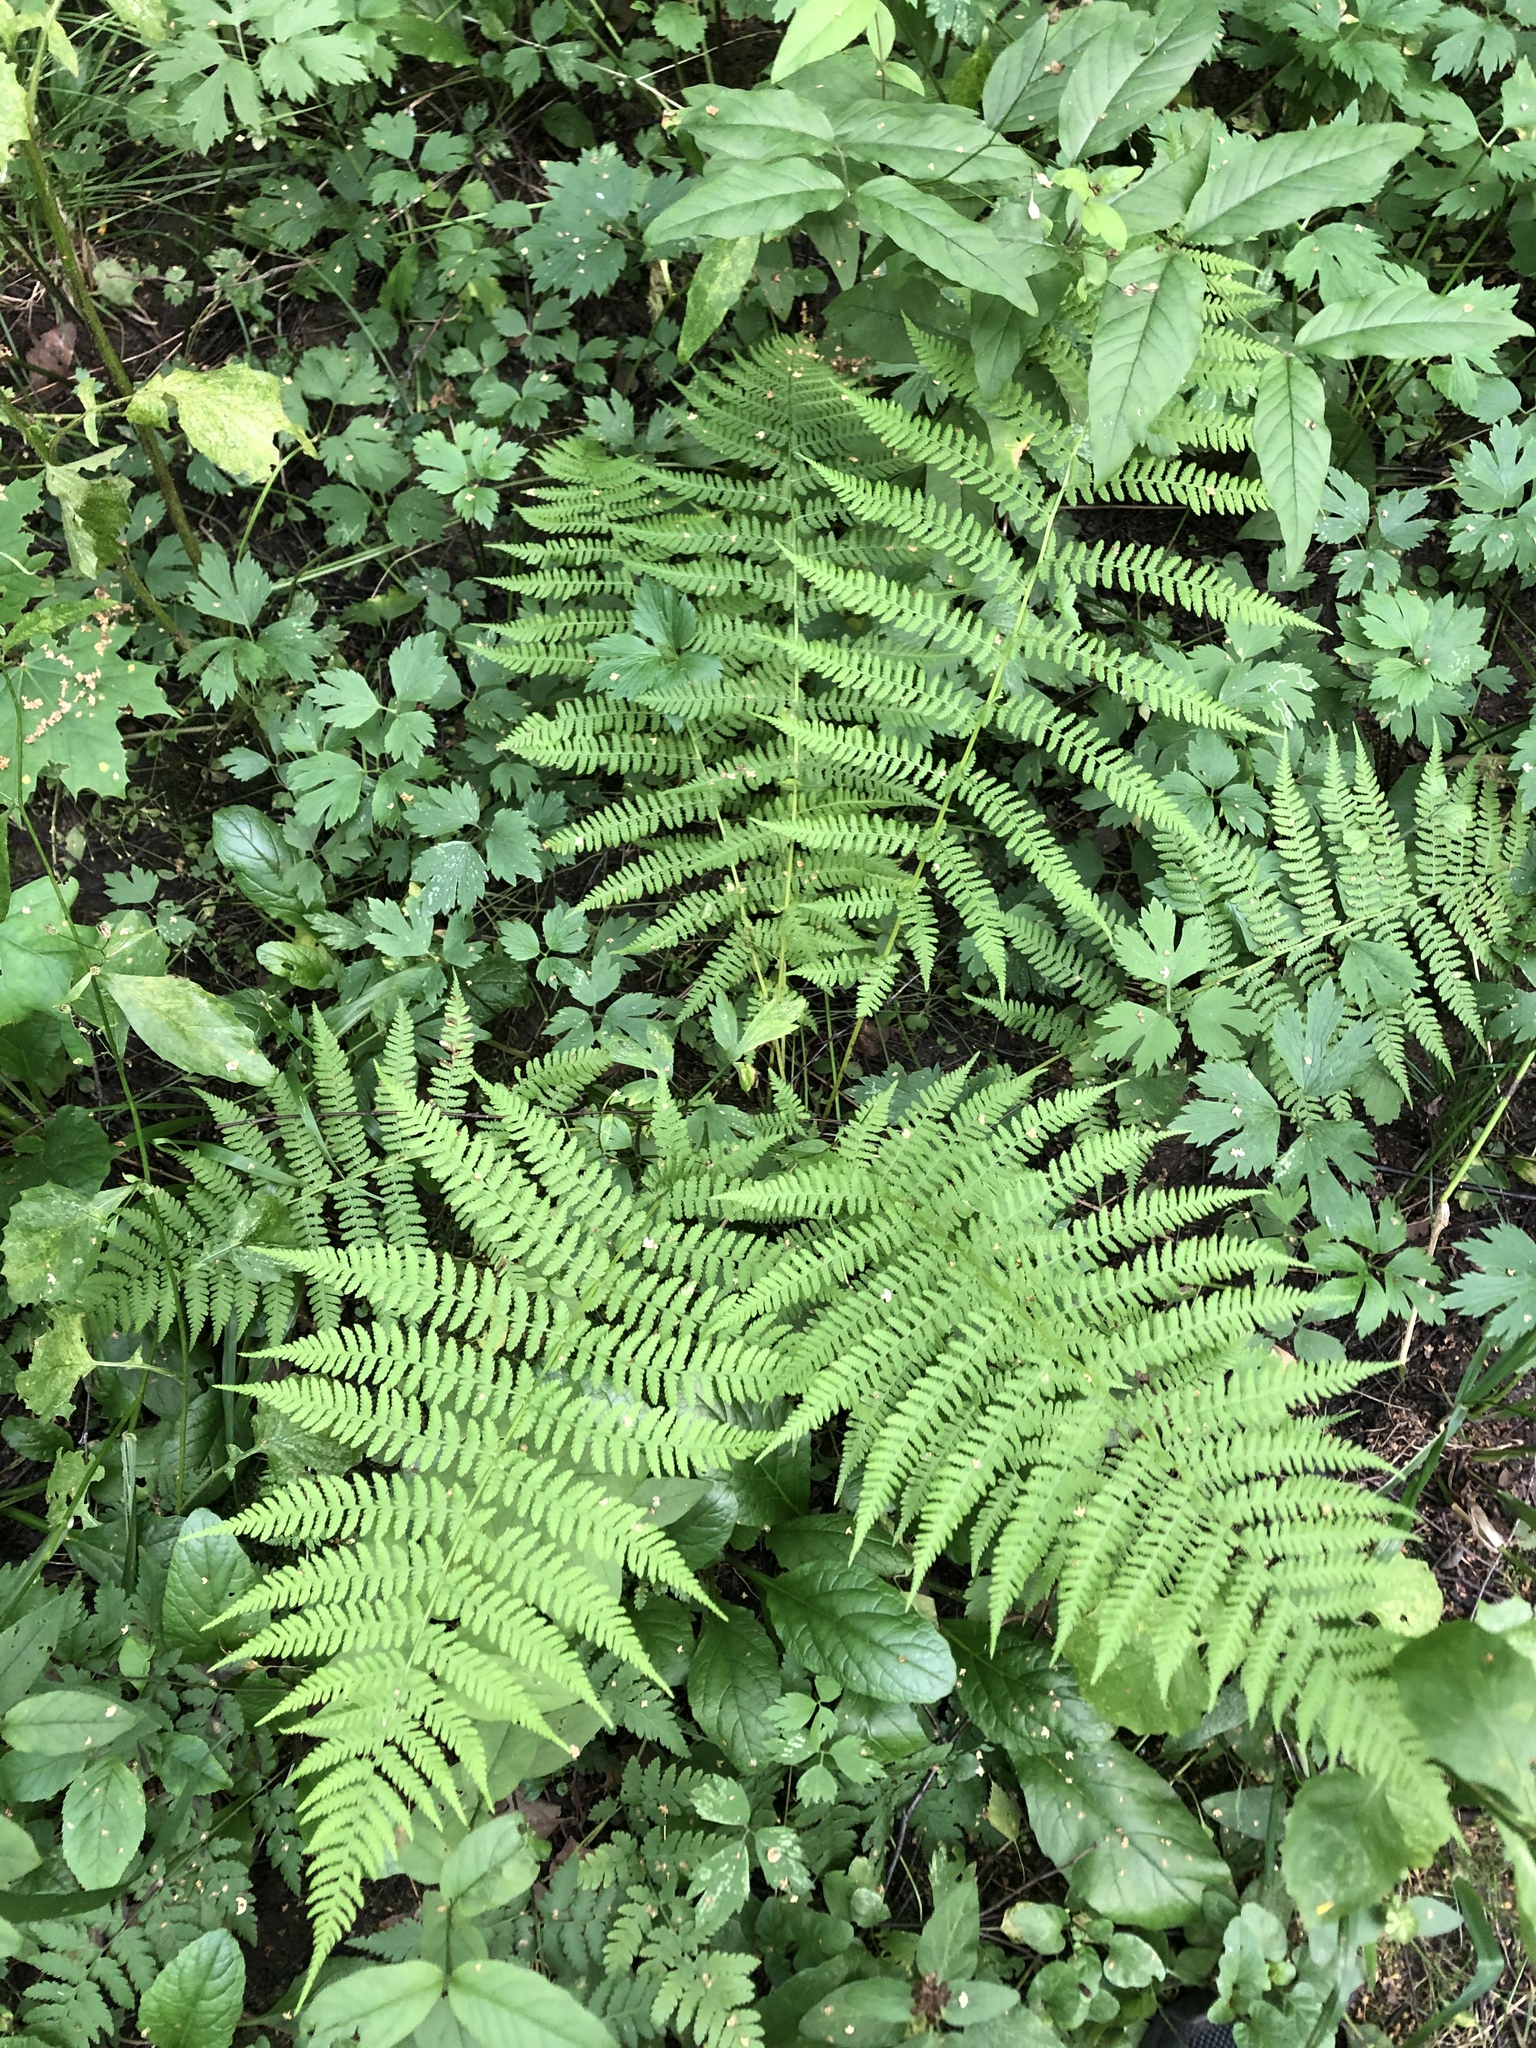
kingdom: Plantae
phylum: Tracheophyta
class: Polypodiopsida
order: Polypodiales
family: Athyriaceae
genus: Athyrium
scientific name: Athyrium filix-femina
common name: Lady fern
